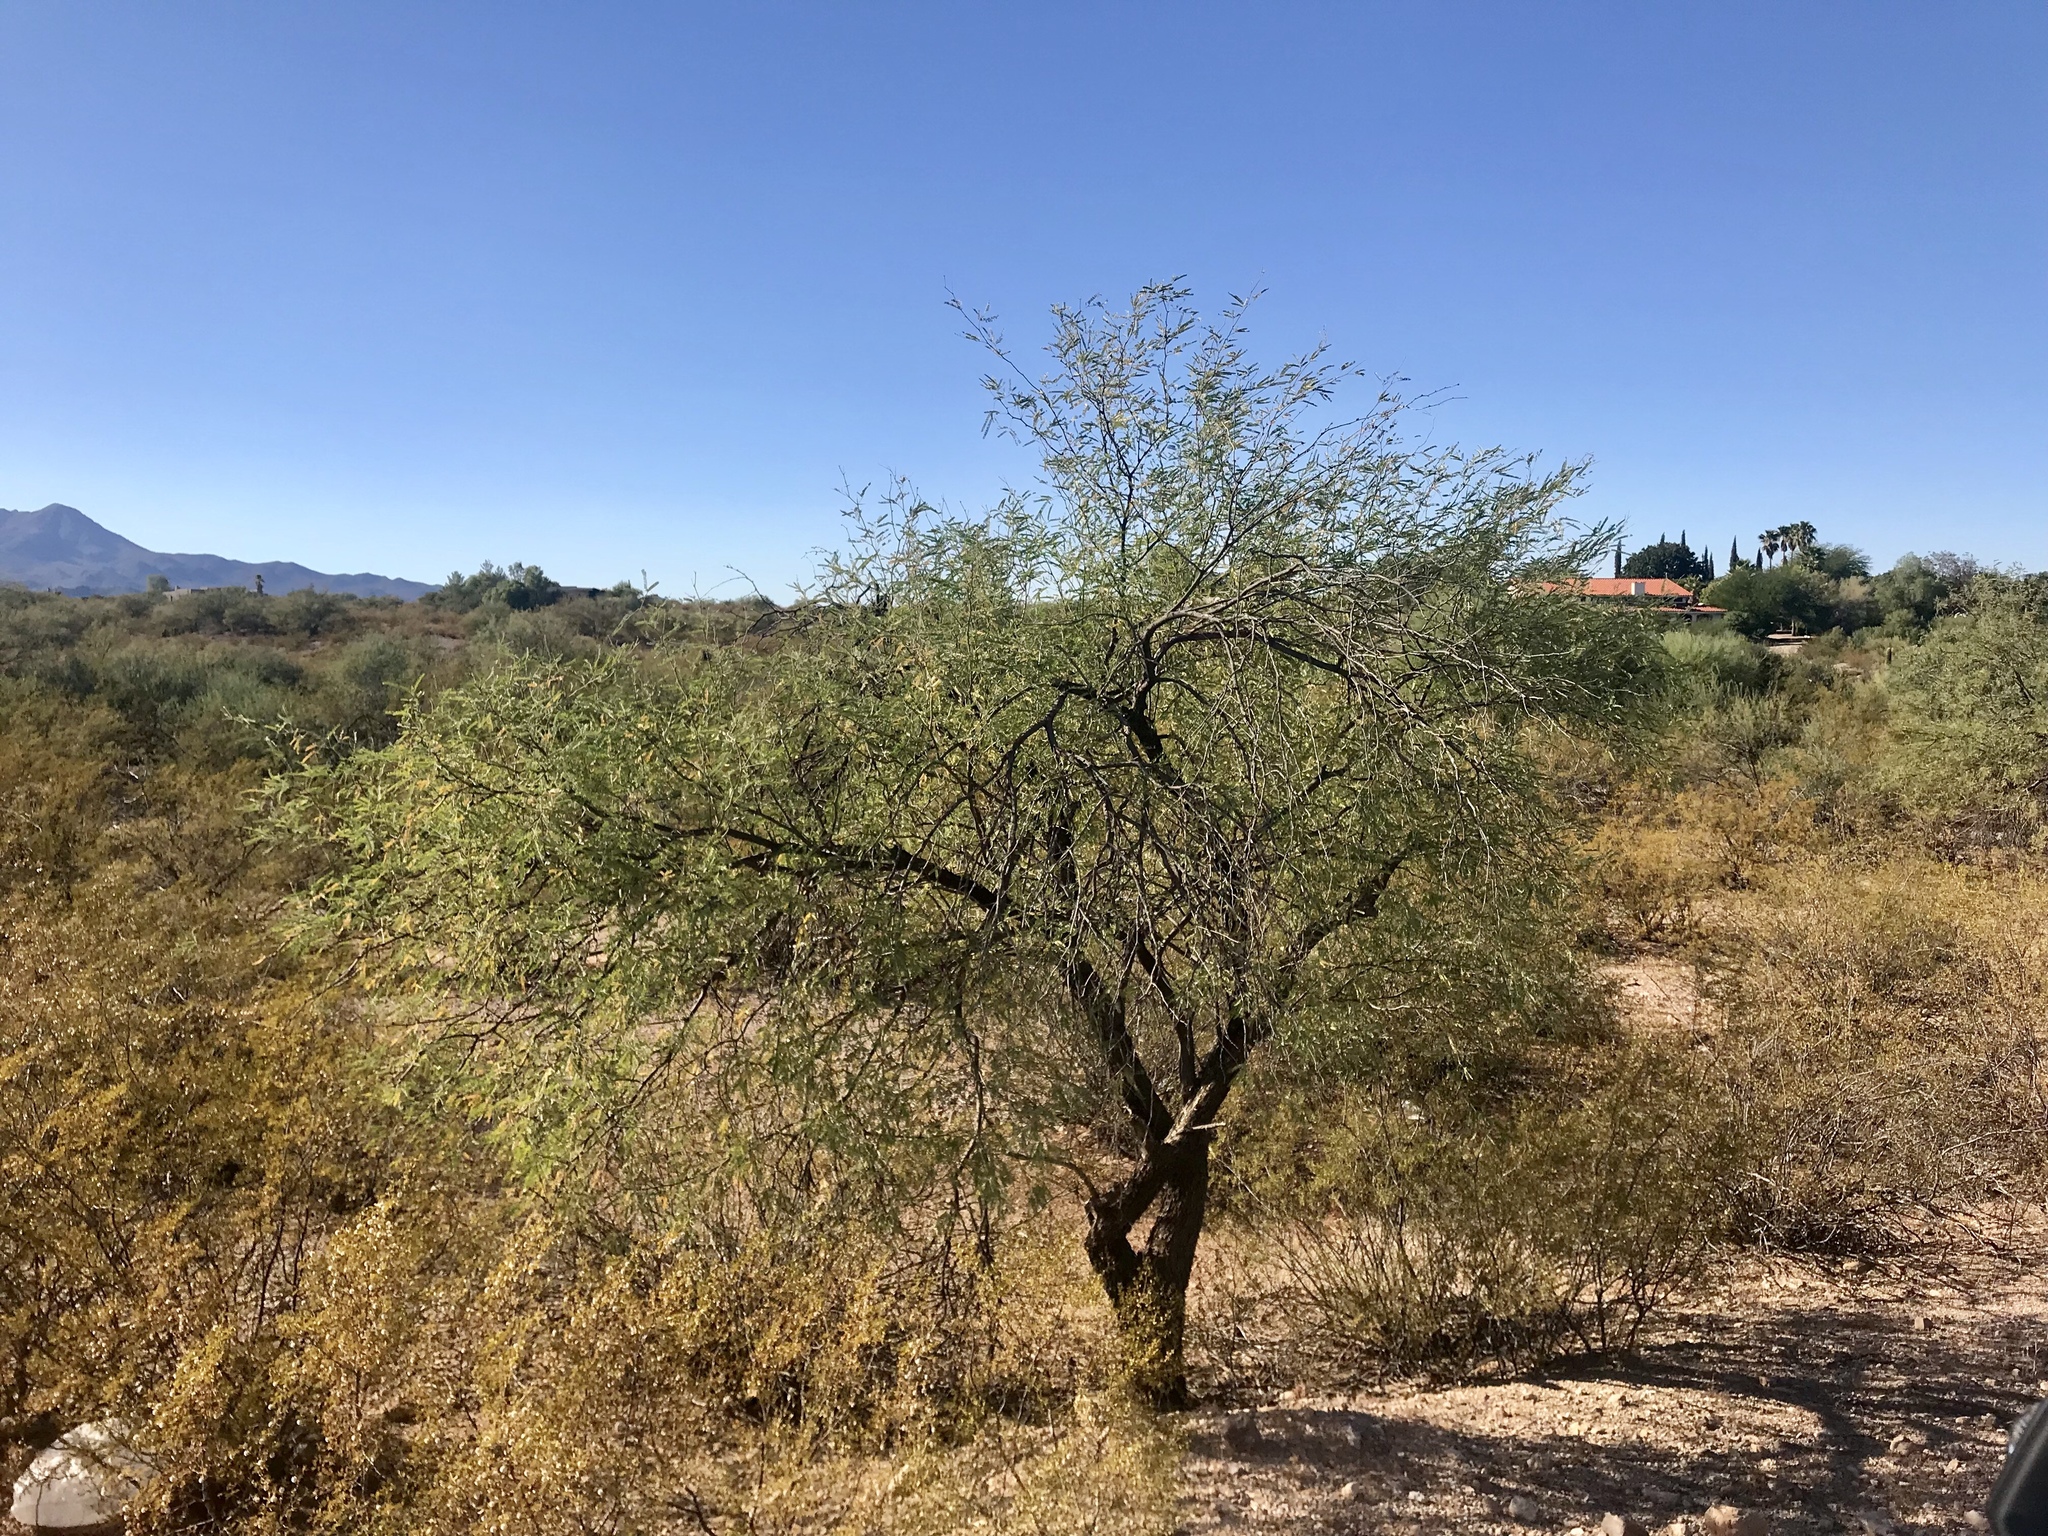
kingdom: Plantae
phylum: Tracheophyta
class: Magnoliopsida
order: Fabales
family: Fabaceae
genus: Prosopis
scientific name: Prosopis velutina
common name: Velvet mesquite
